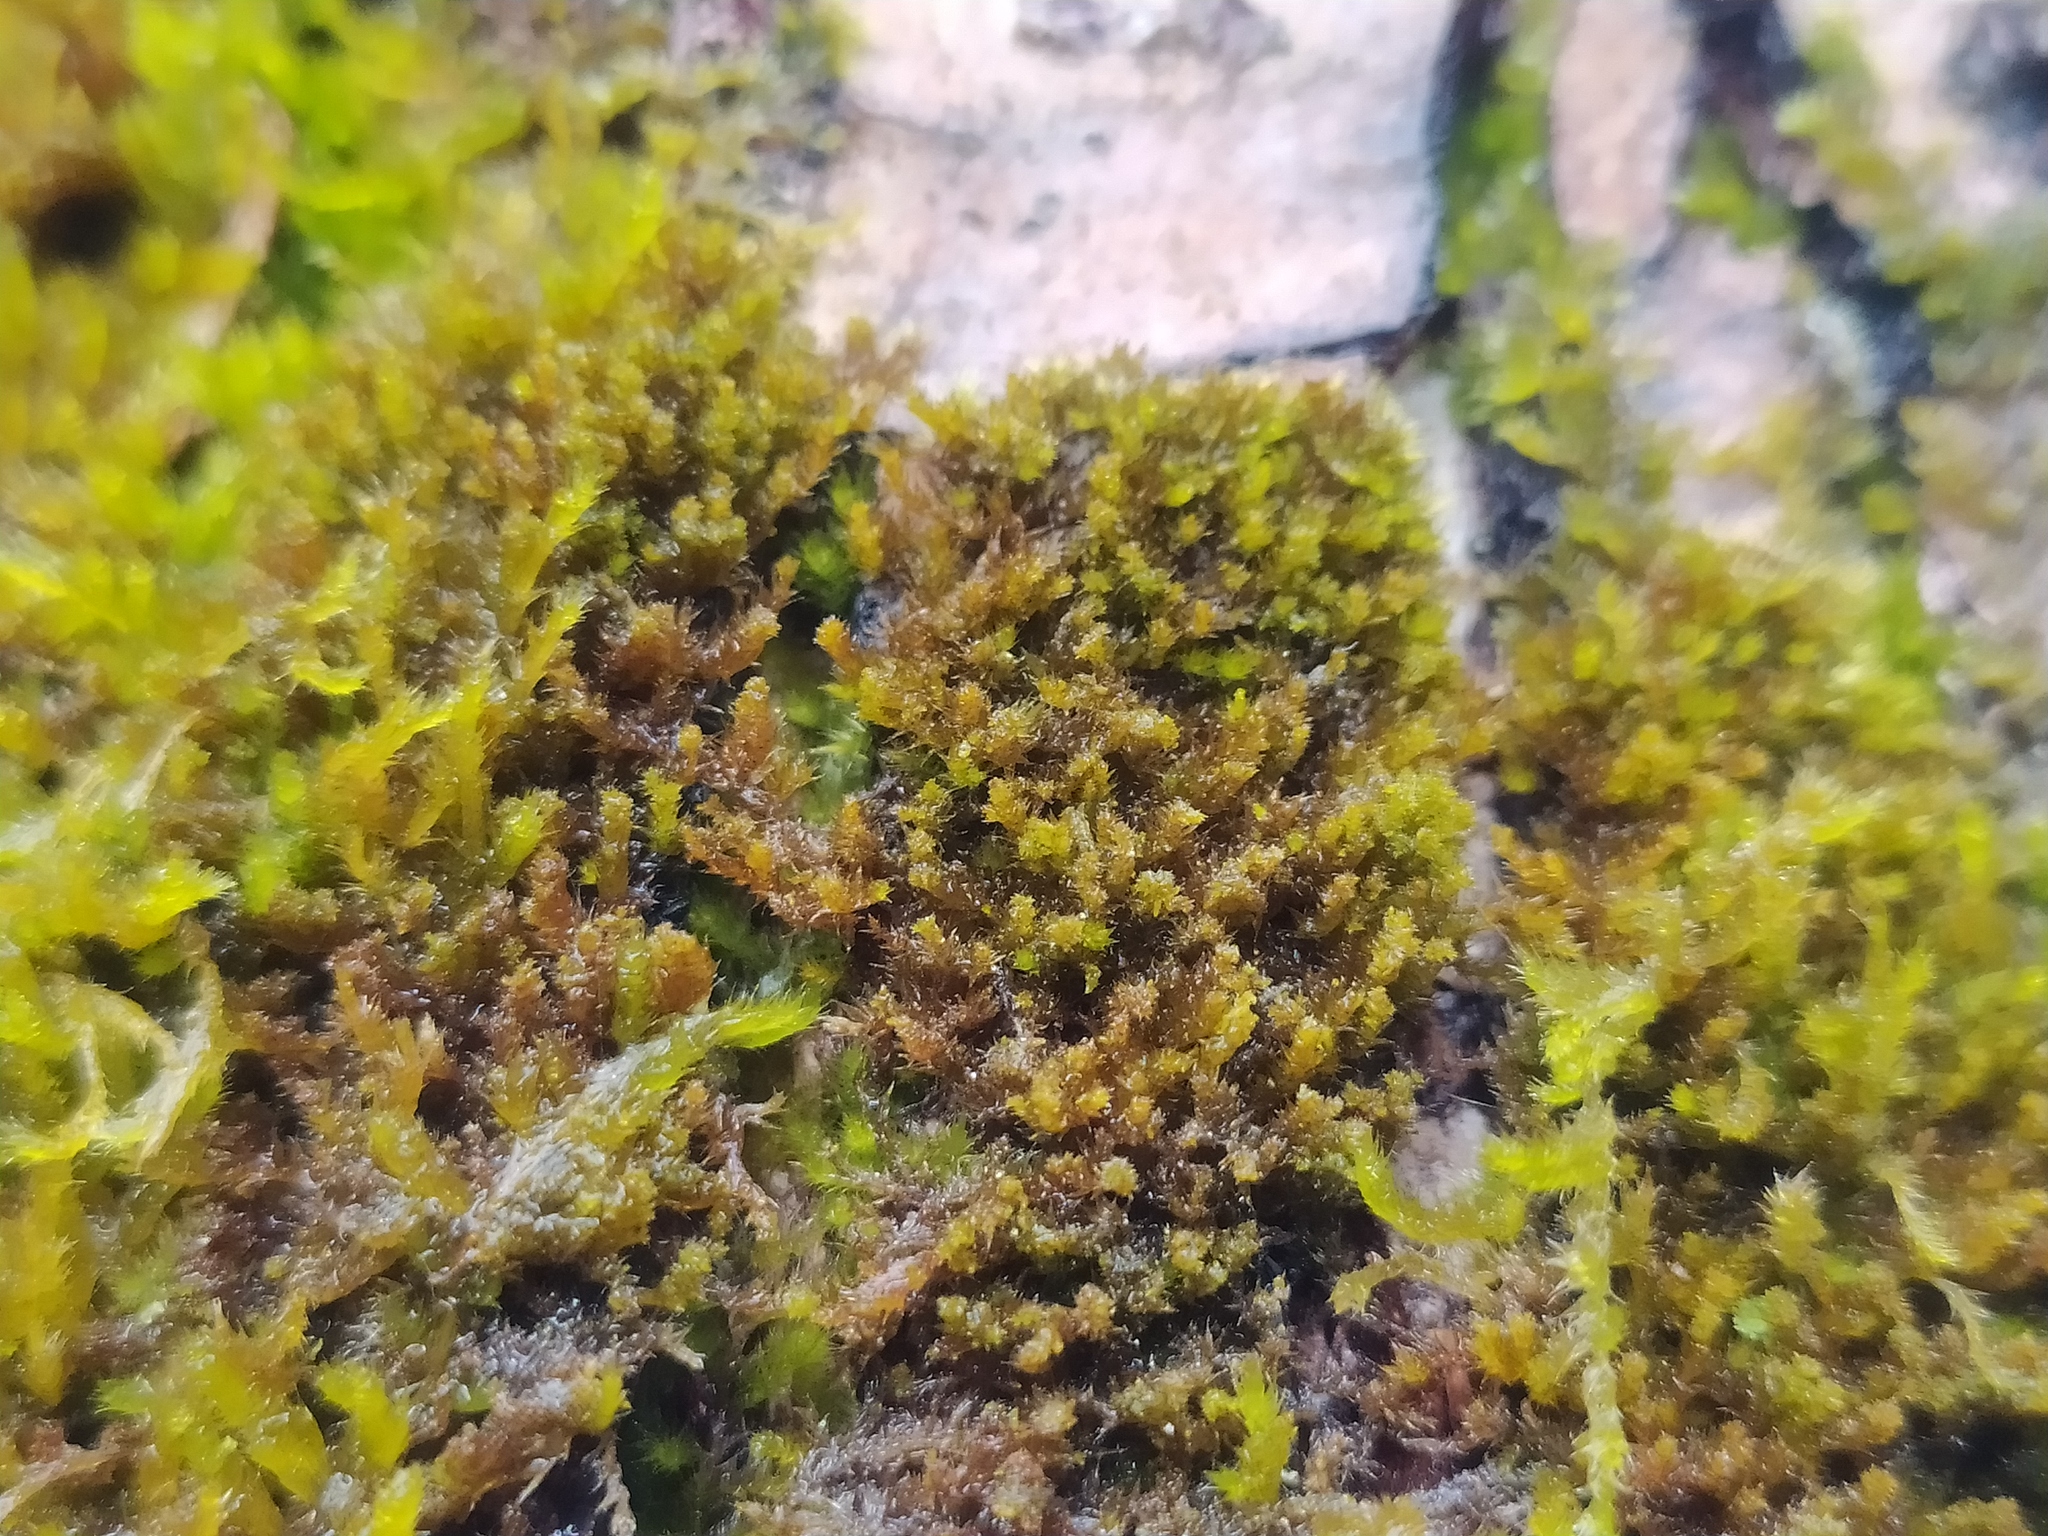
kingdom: Plantae
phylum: Bryophyta
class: Bryopsida
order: Hypnales
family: Pylaisiadelphaceae
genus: Platygyrium
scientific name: Platygyrium repens
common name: Flat-brocade moss
